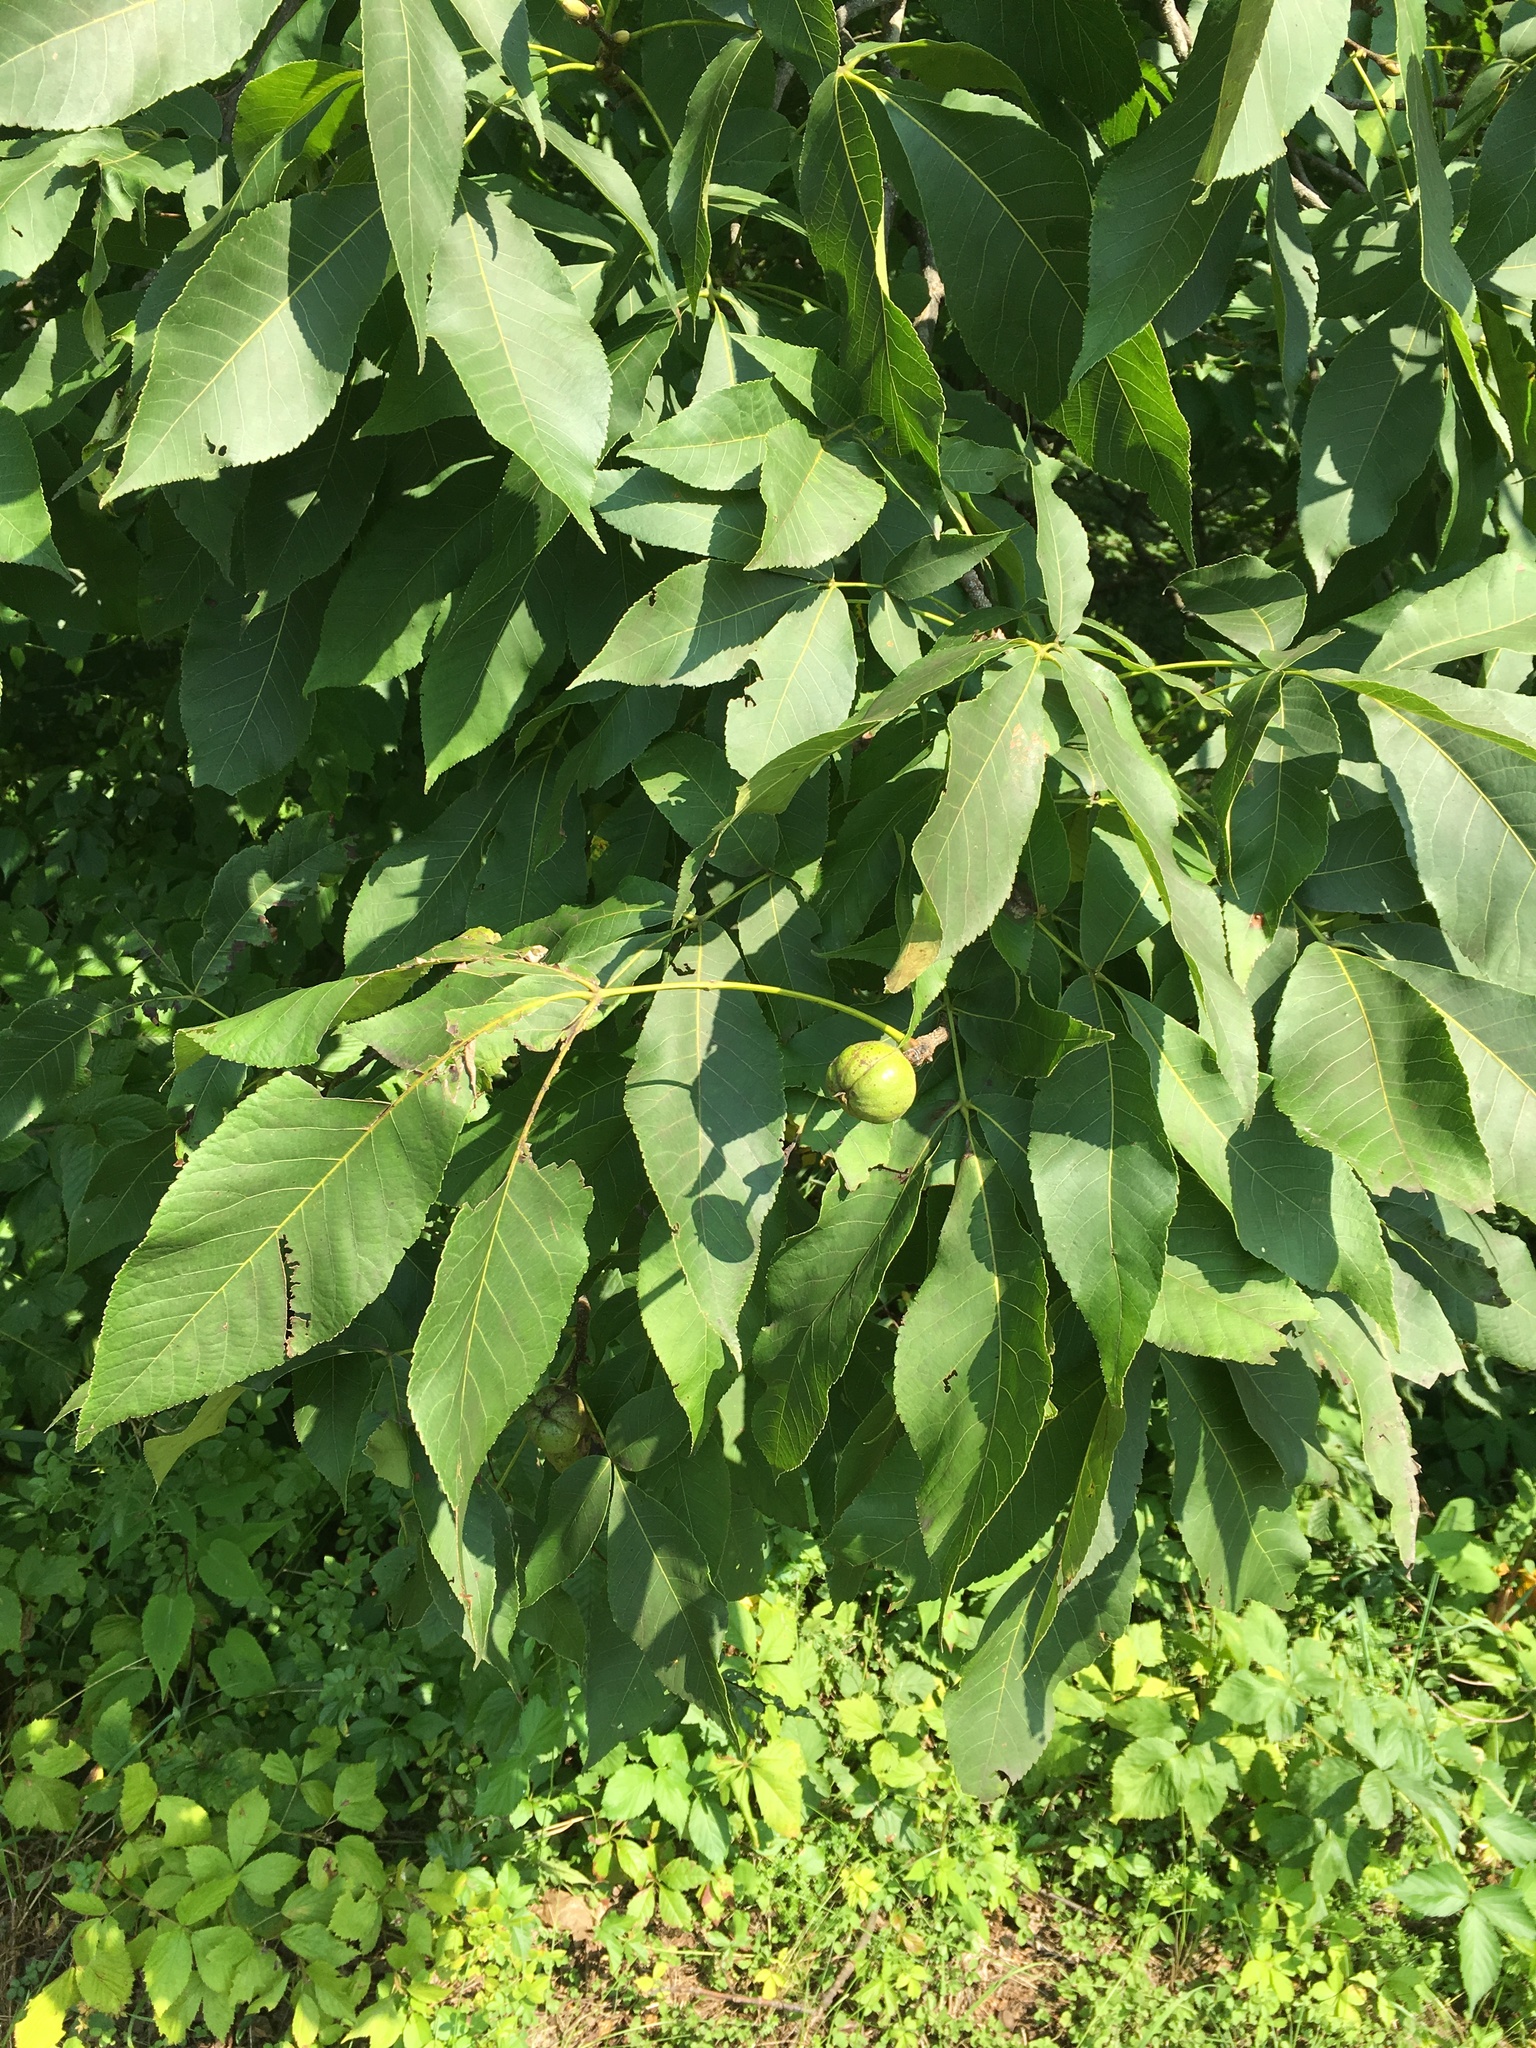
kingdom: Plantae
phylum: Tracheophyta
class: Magnoliopsida
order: Fagales
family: Juglandaceae
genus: Carya
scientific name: Carya ovata
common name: Shagbark hickory
